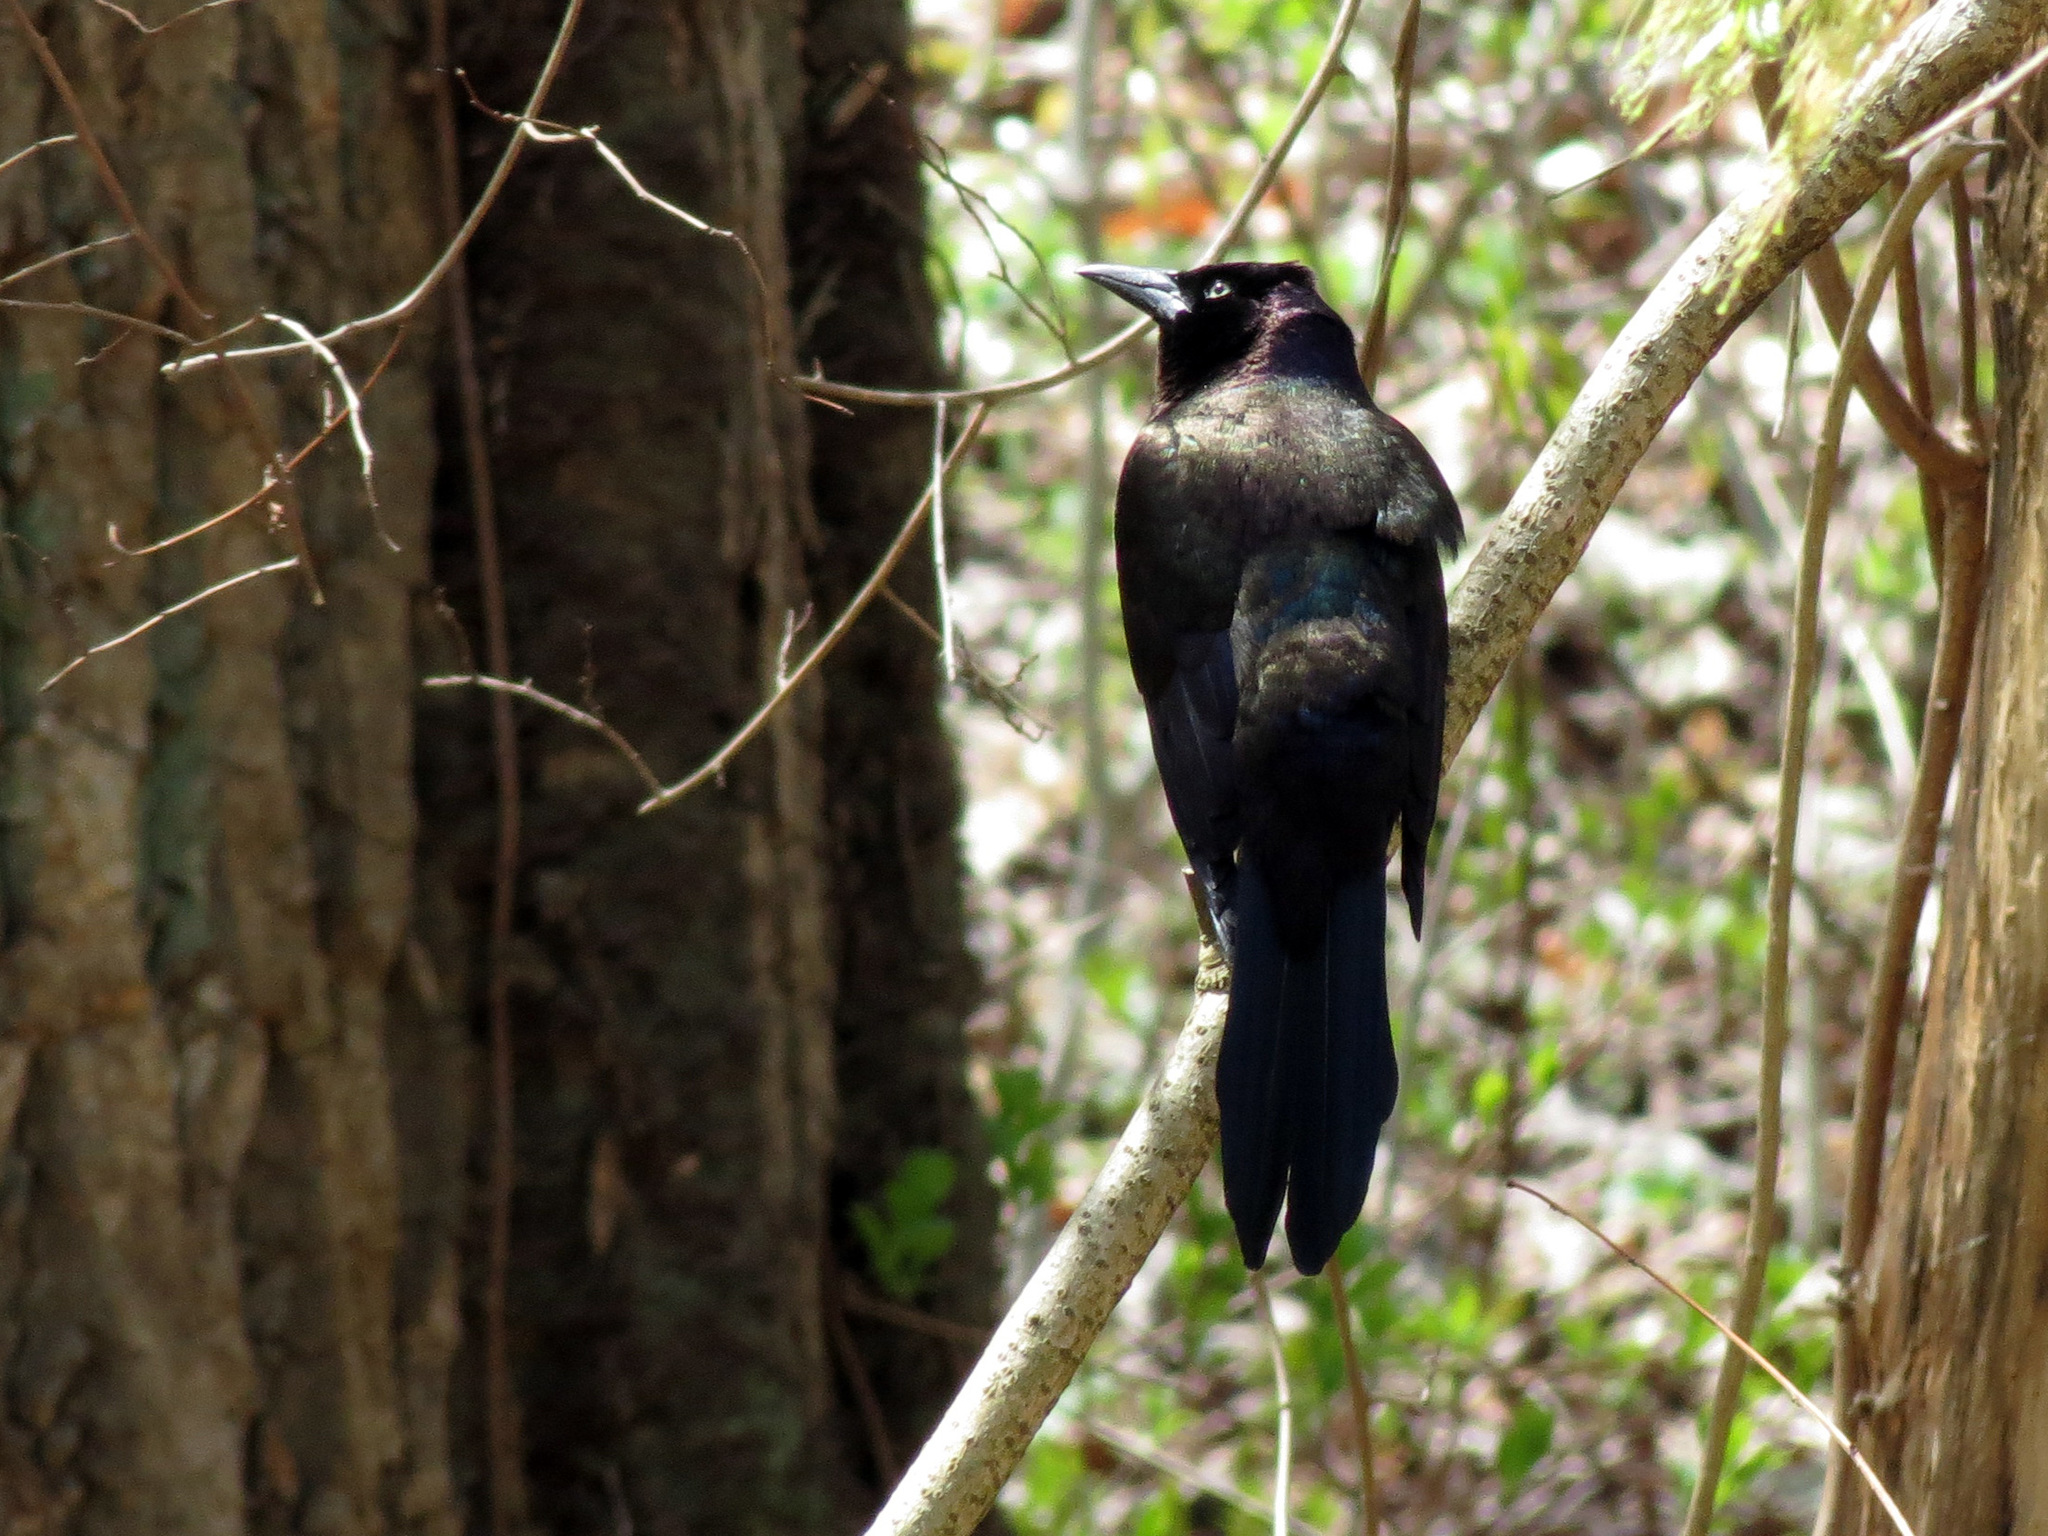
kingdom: Animalia
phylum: Chordata
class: Aves
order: Passeriformes
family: Icteridae
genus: Quiscalus
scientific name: Quiscalus quiscula
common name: Common grackle
